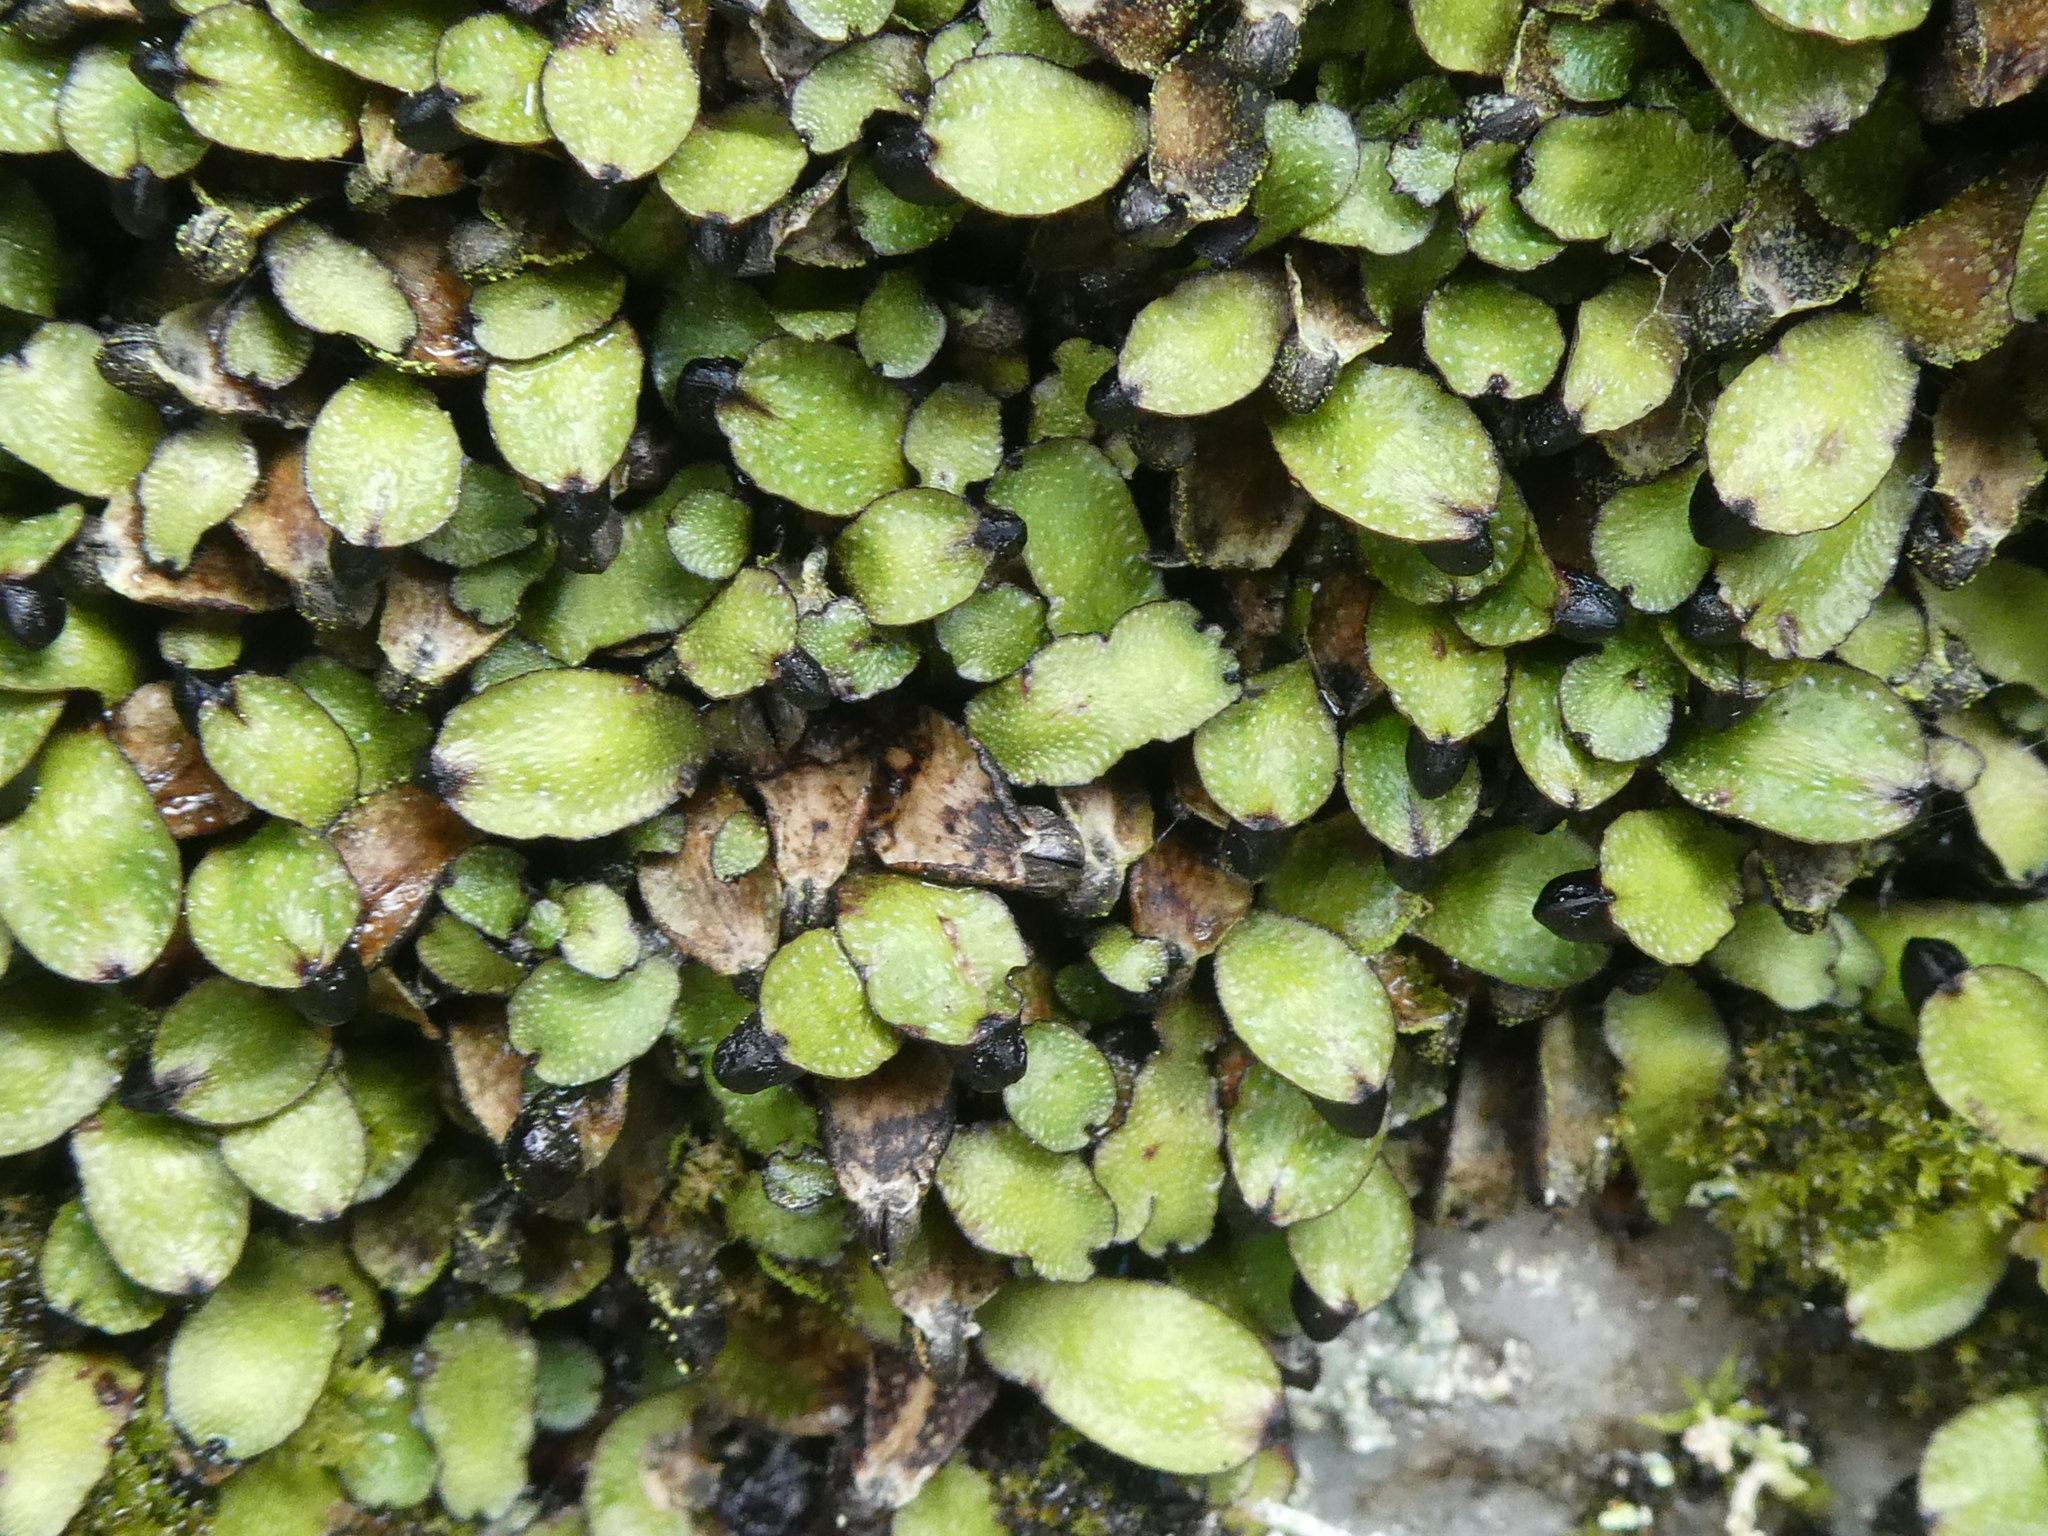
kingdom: Plantae
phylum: Marchantiophyta
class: Marchantiopsida
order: Marchantiales
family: Targioniaceae
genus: Targionia
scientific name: Targionia hypophylla
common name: Orobus-seed liverwort
